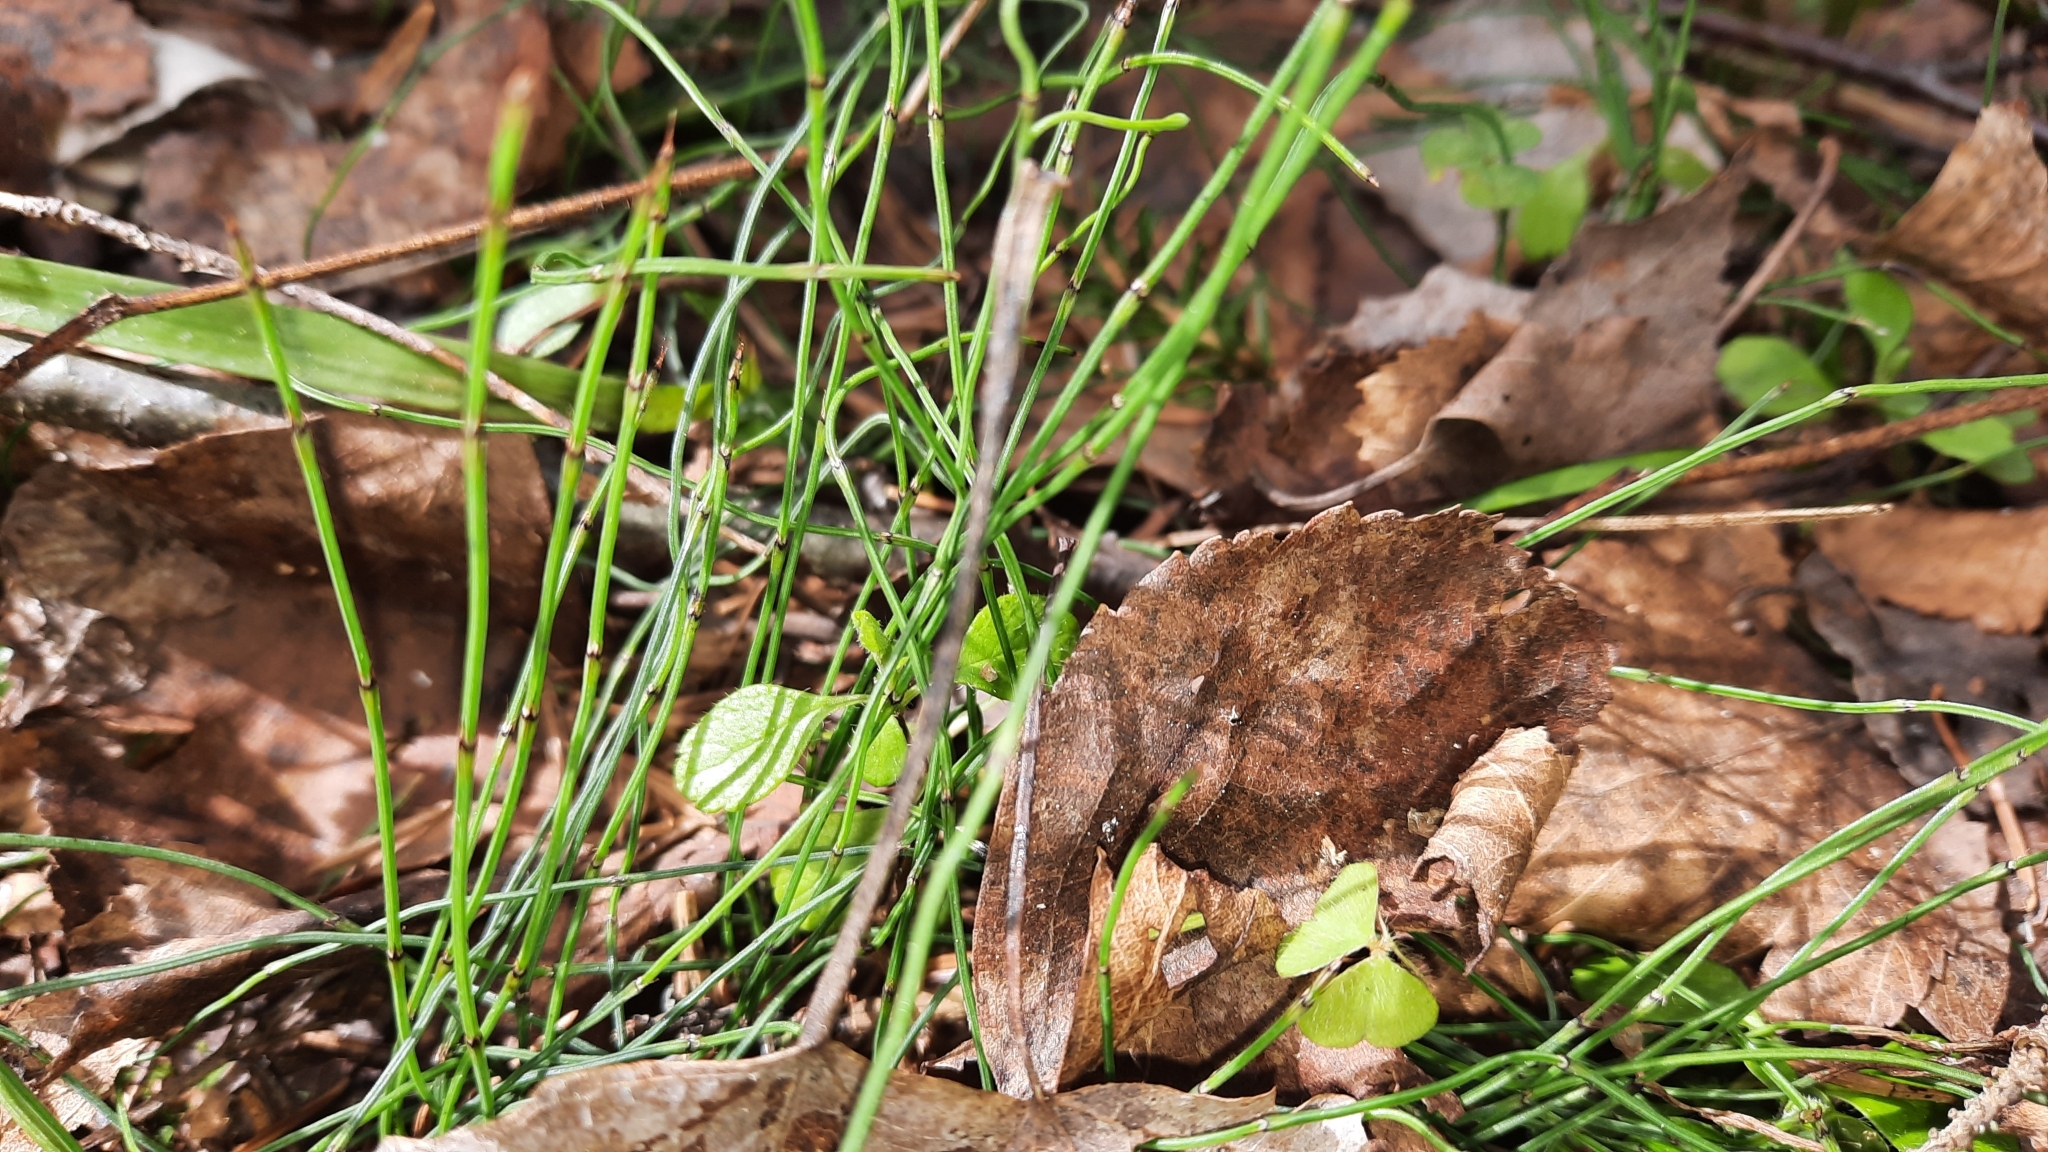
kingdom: Plantae
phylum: Tracheophyta
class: Polypodiopsida
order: Equisetales
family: Equisetaceae
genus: Equisetum
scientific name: Equisetum scirpoides
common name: Delicate horsetail
